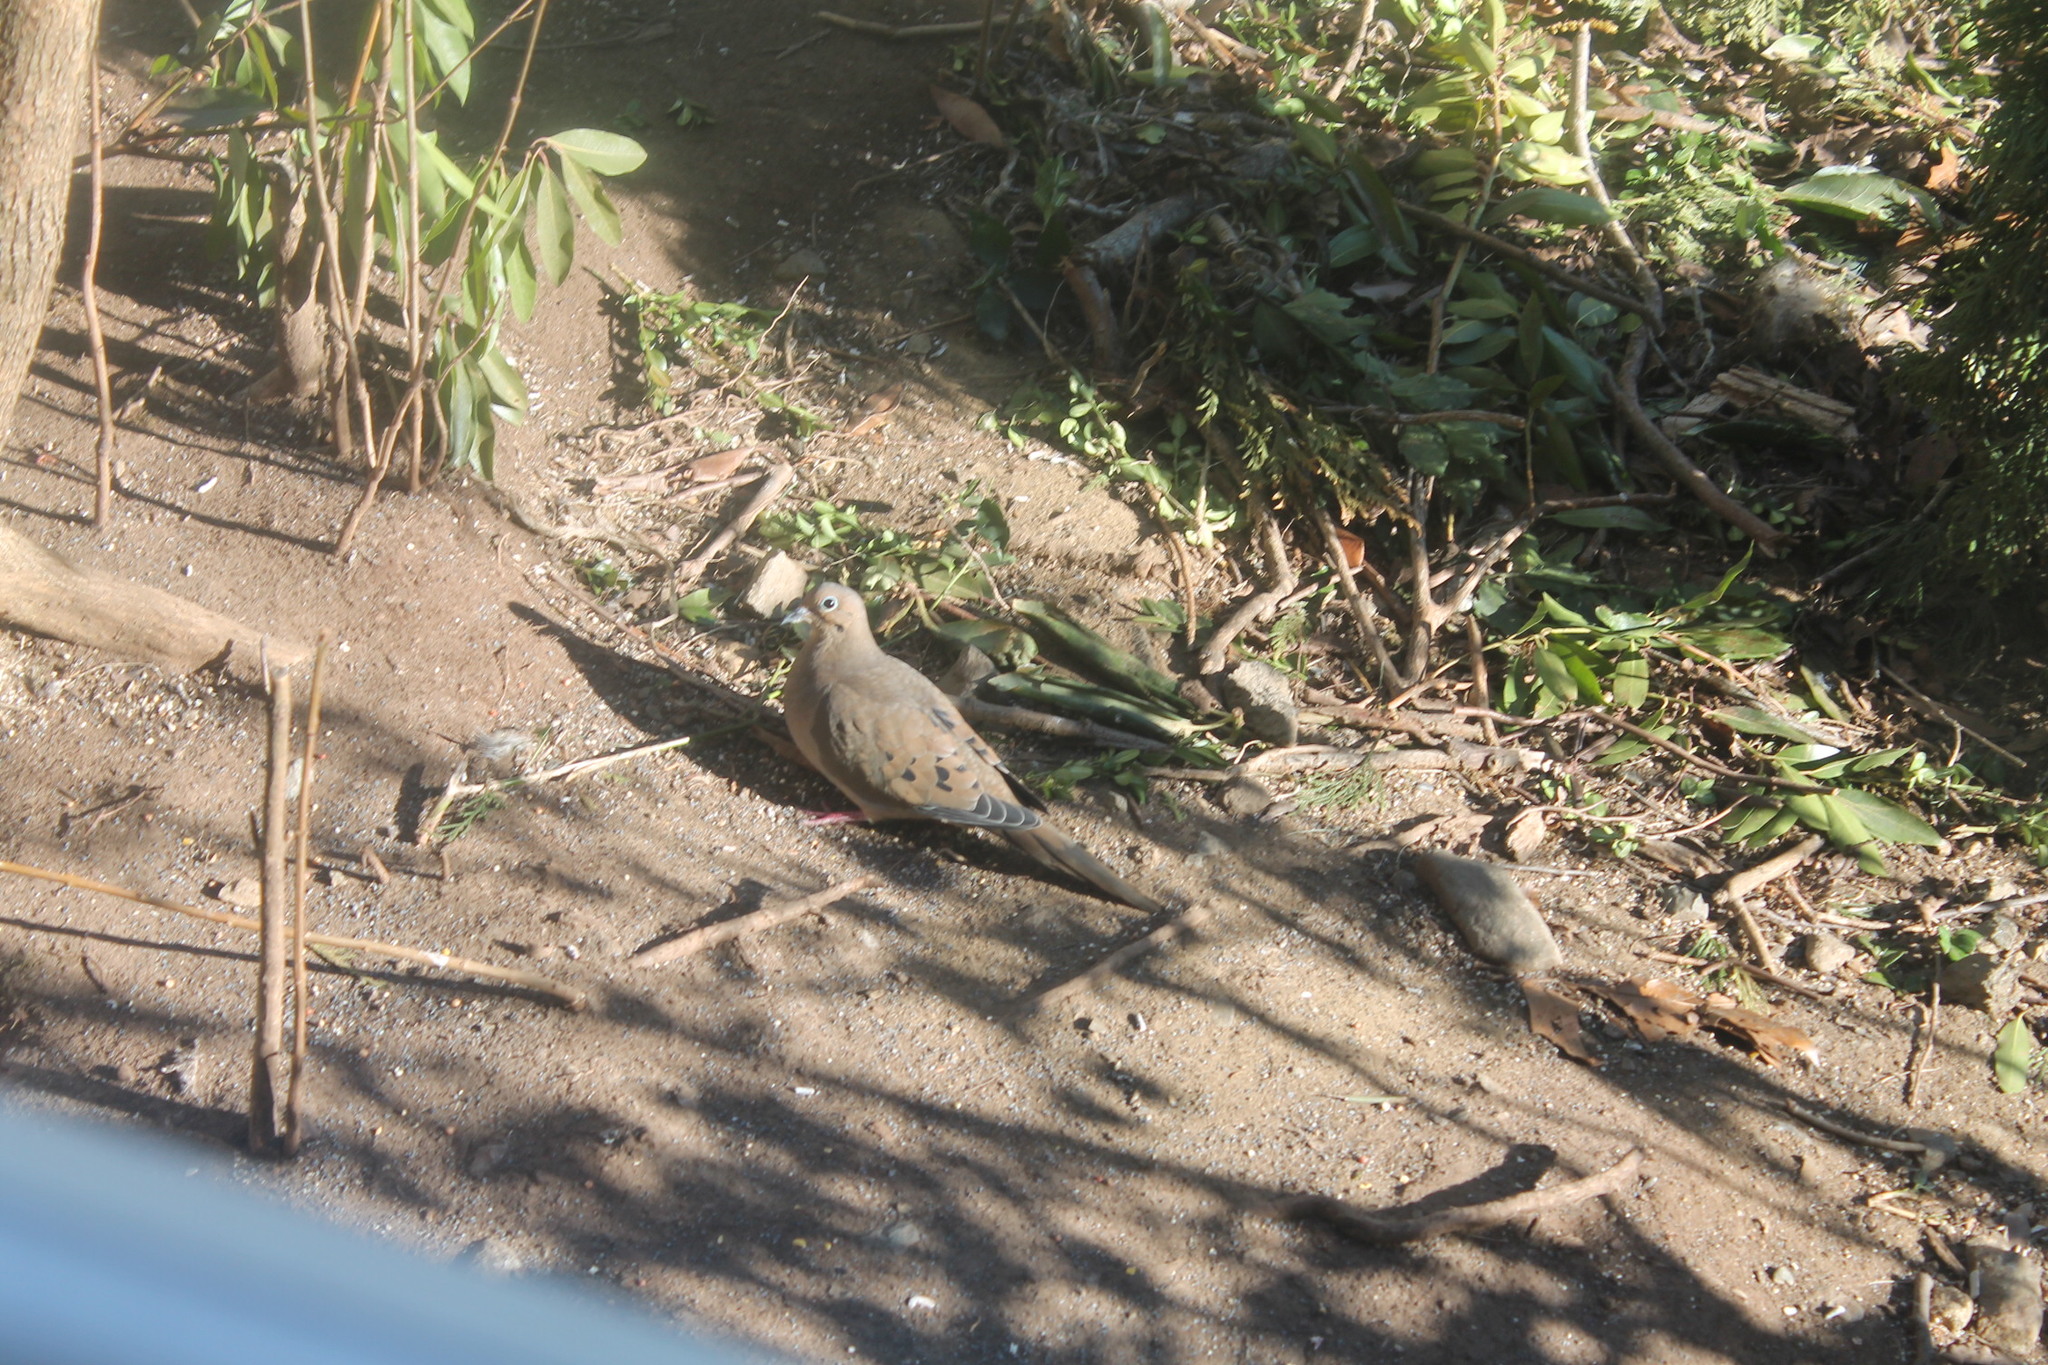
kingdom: Animalia
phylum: Chordata
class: Aves
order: Columbiformes
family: Columbidae
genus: Zenaida
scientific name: Zenaida macroura
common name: Mourning dove
